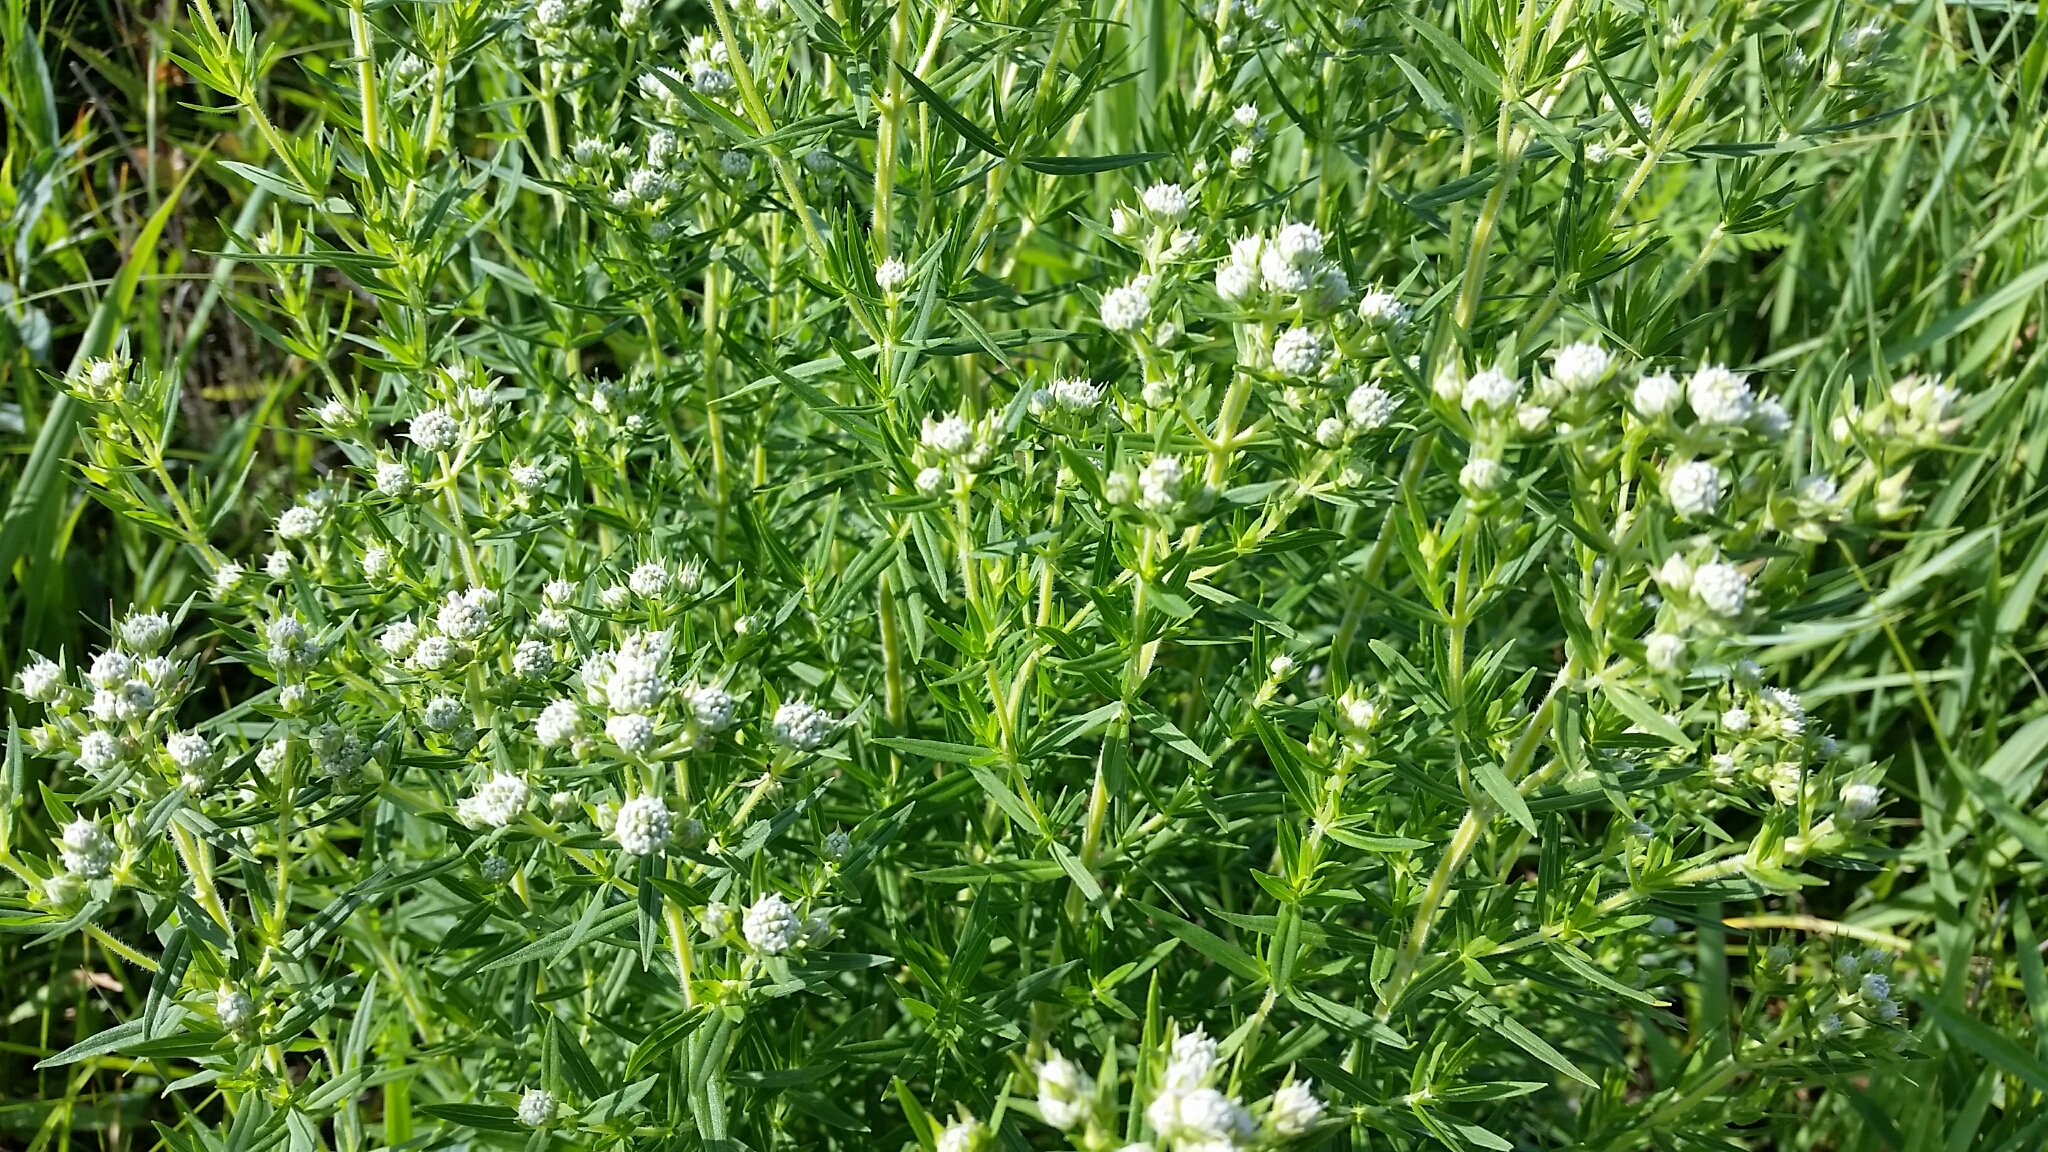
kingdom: Plantae
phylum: Tracheophyta
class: Magnoliopsida
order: Lamiales
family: Lamiaceae
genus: Pycnanthemum
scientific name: Pycnanthemum virginianum
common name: Virginia mountain-mint
